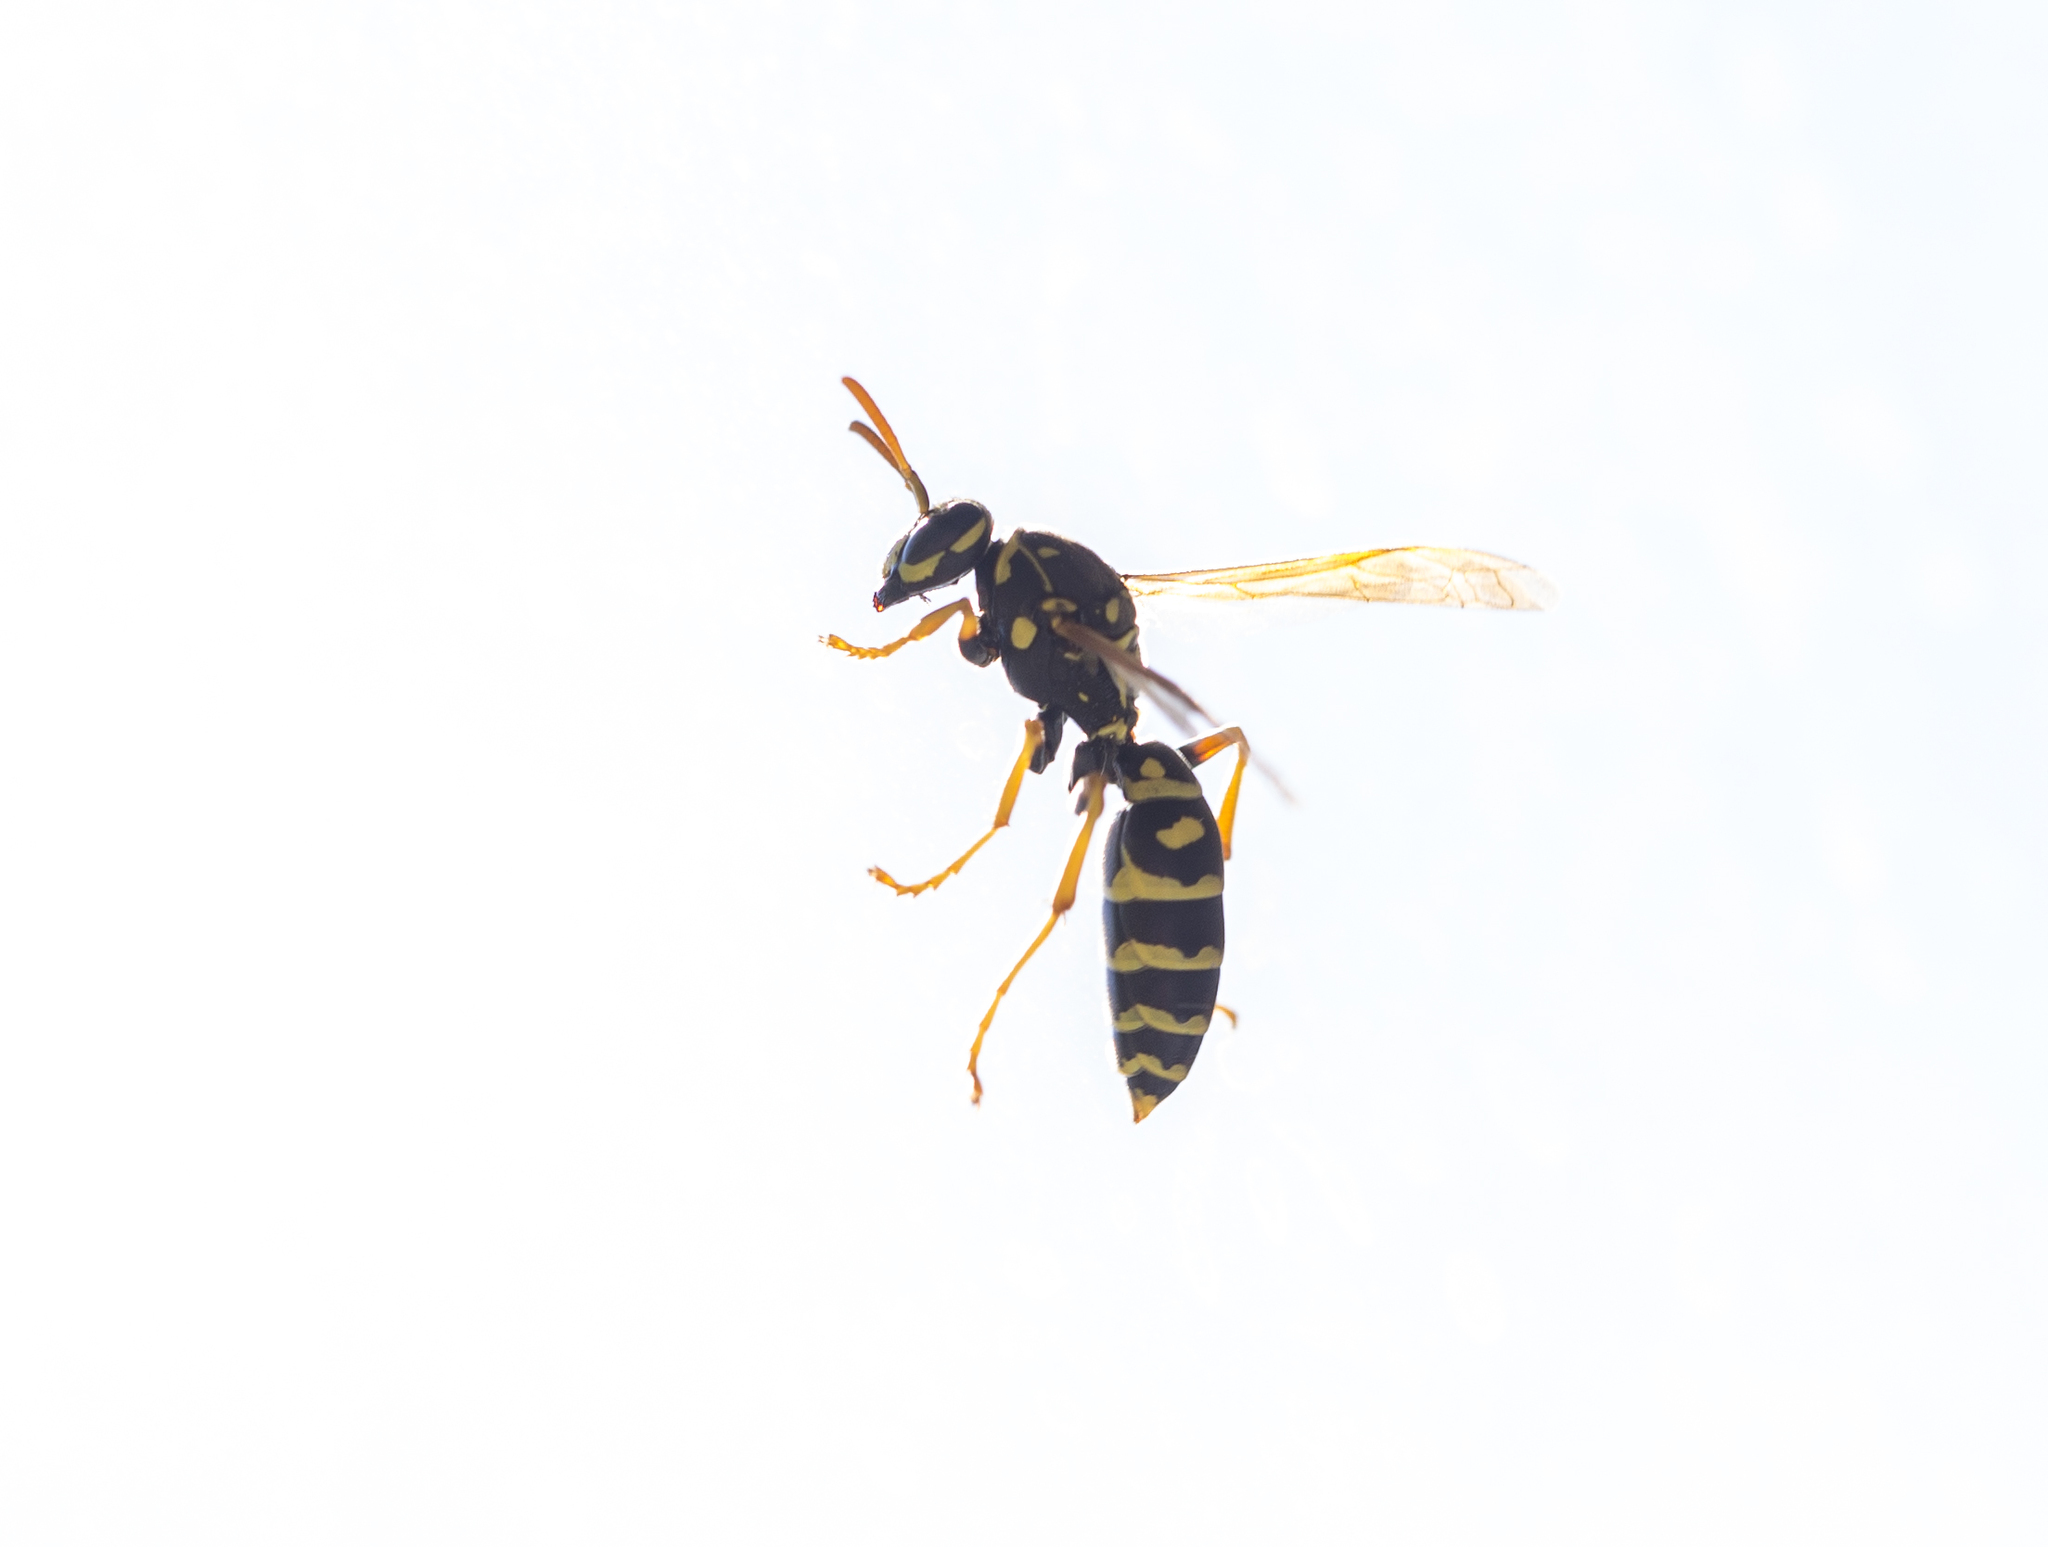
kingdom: Animalia
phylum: Arthropoda
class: Insecta
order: Hymenoptera
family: Eumenidae
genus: Polistes
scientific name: Polistes dominula
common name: Paper wasp
